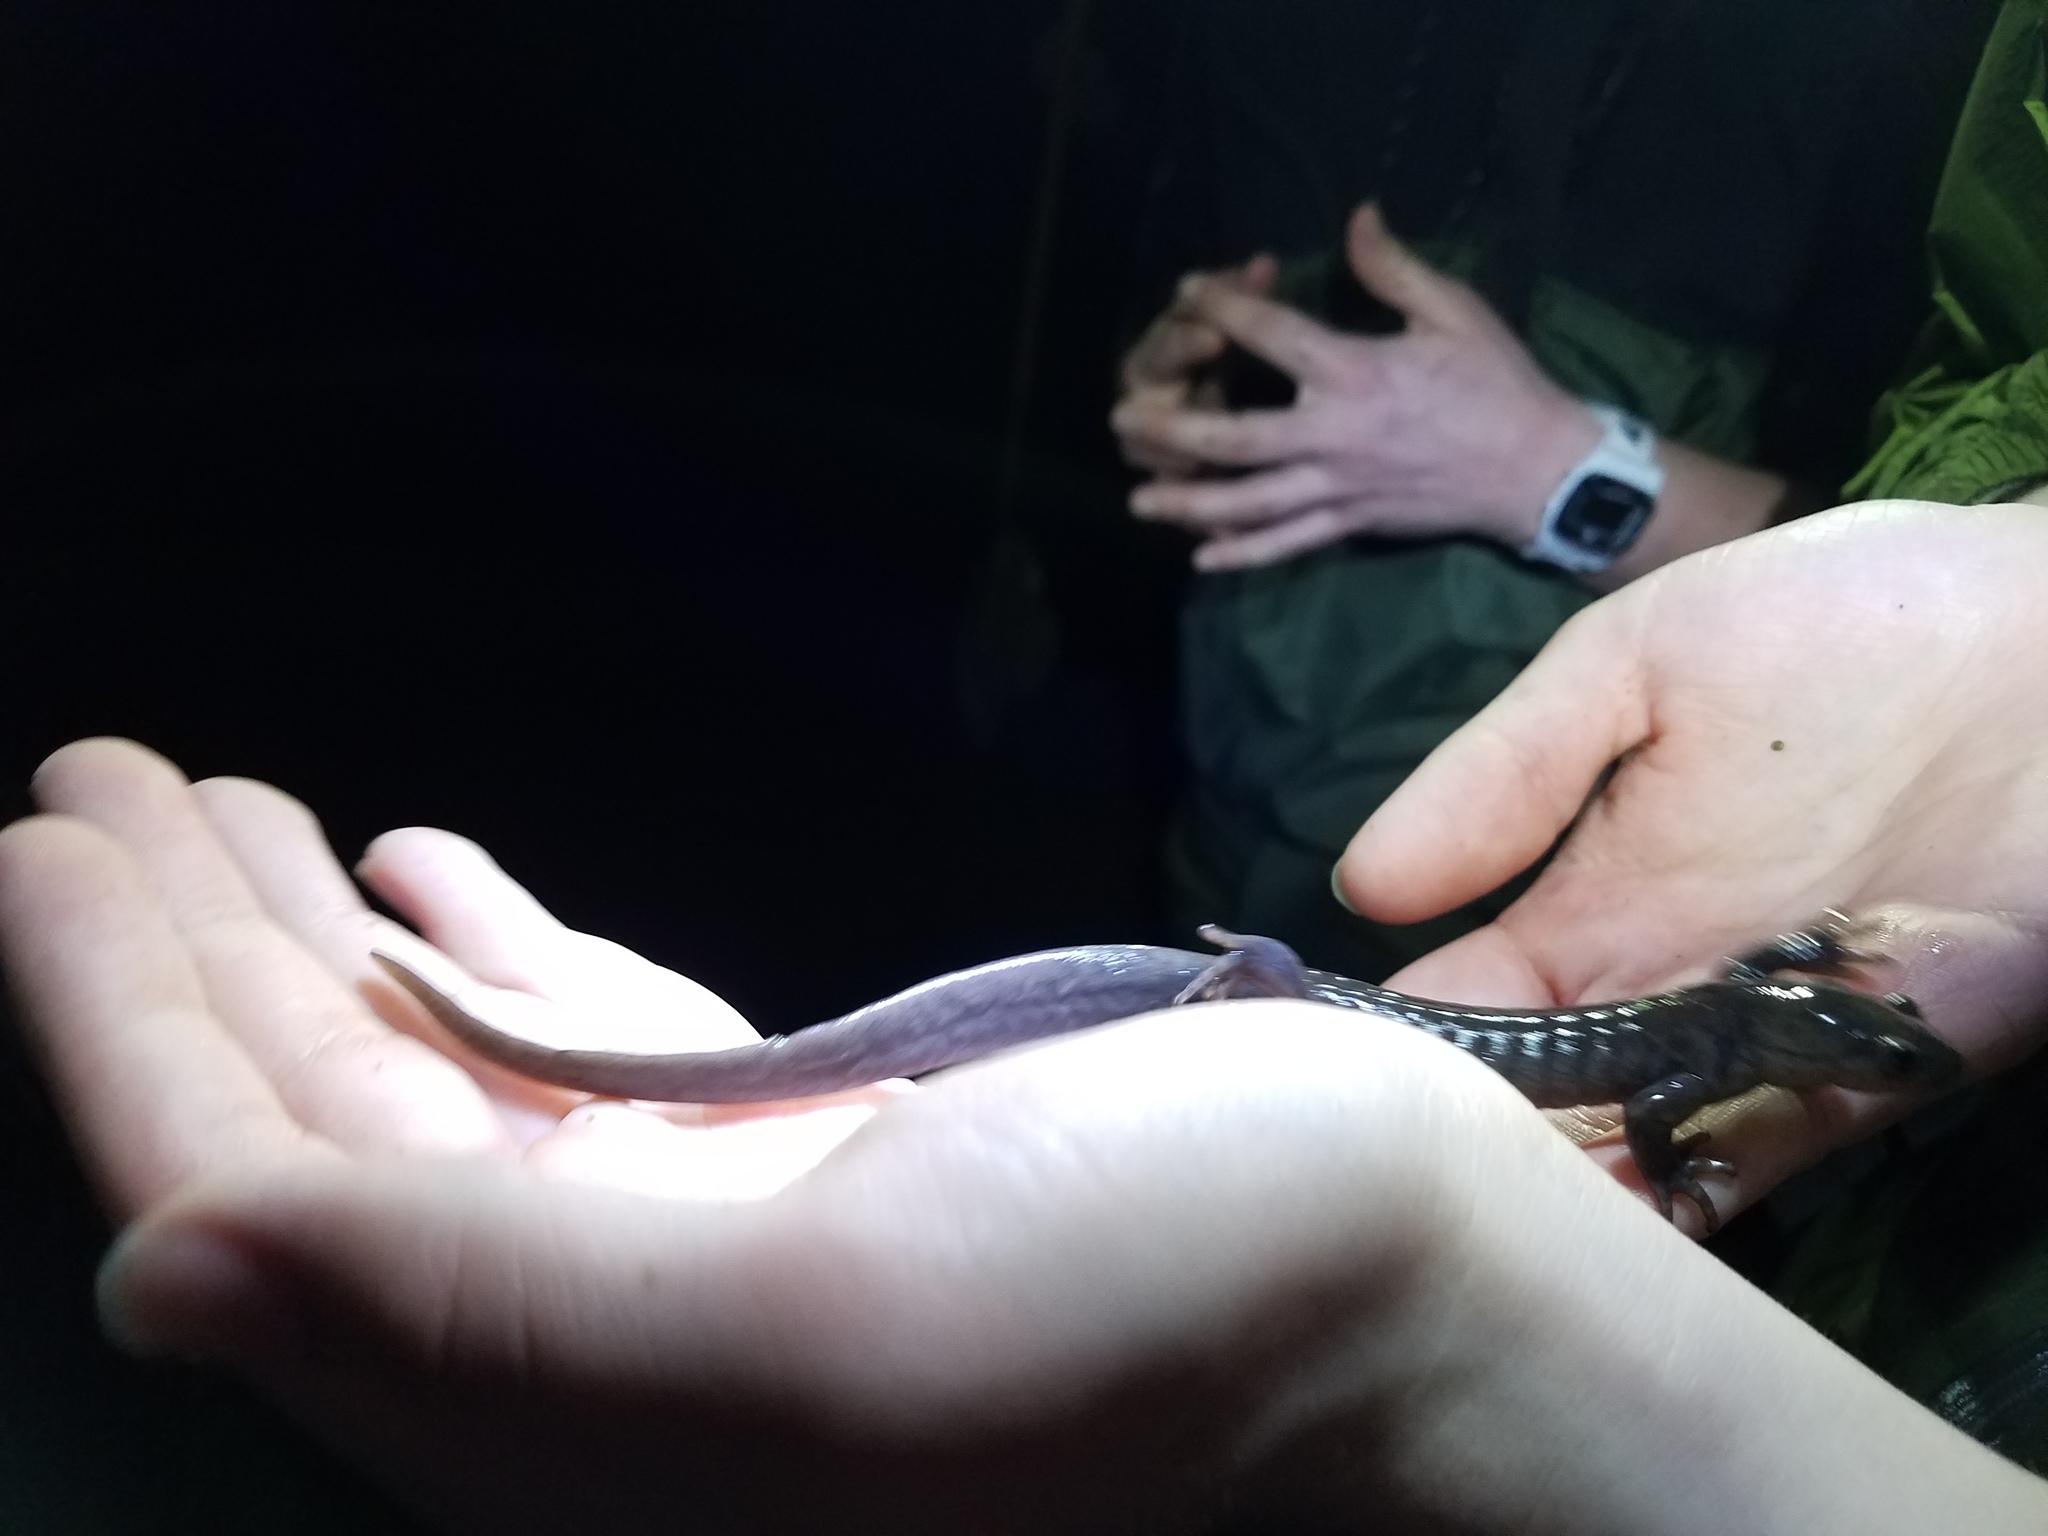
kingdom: Animalia
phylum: Chordata
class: Amphibia
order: Caudata
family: Ambystomatidae
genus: Ambystoma
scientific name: Ambystoma jeffersonianum
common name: Jefferson salamander
